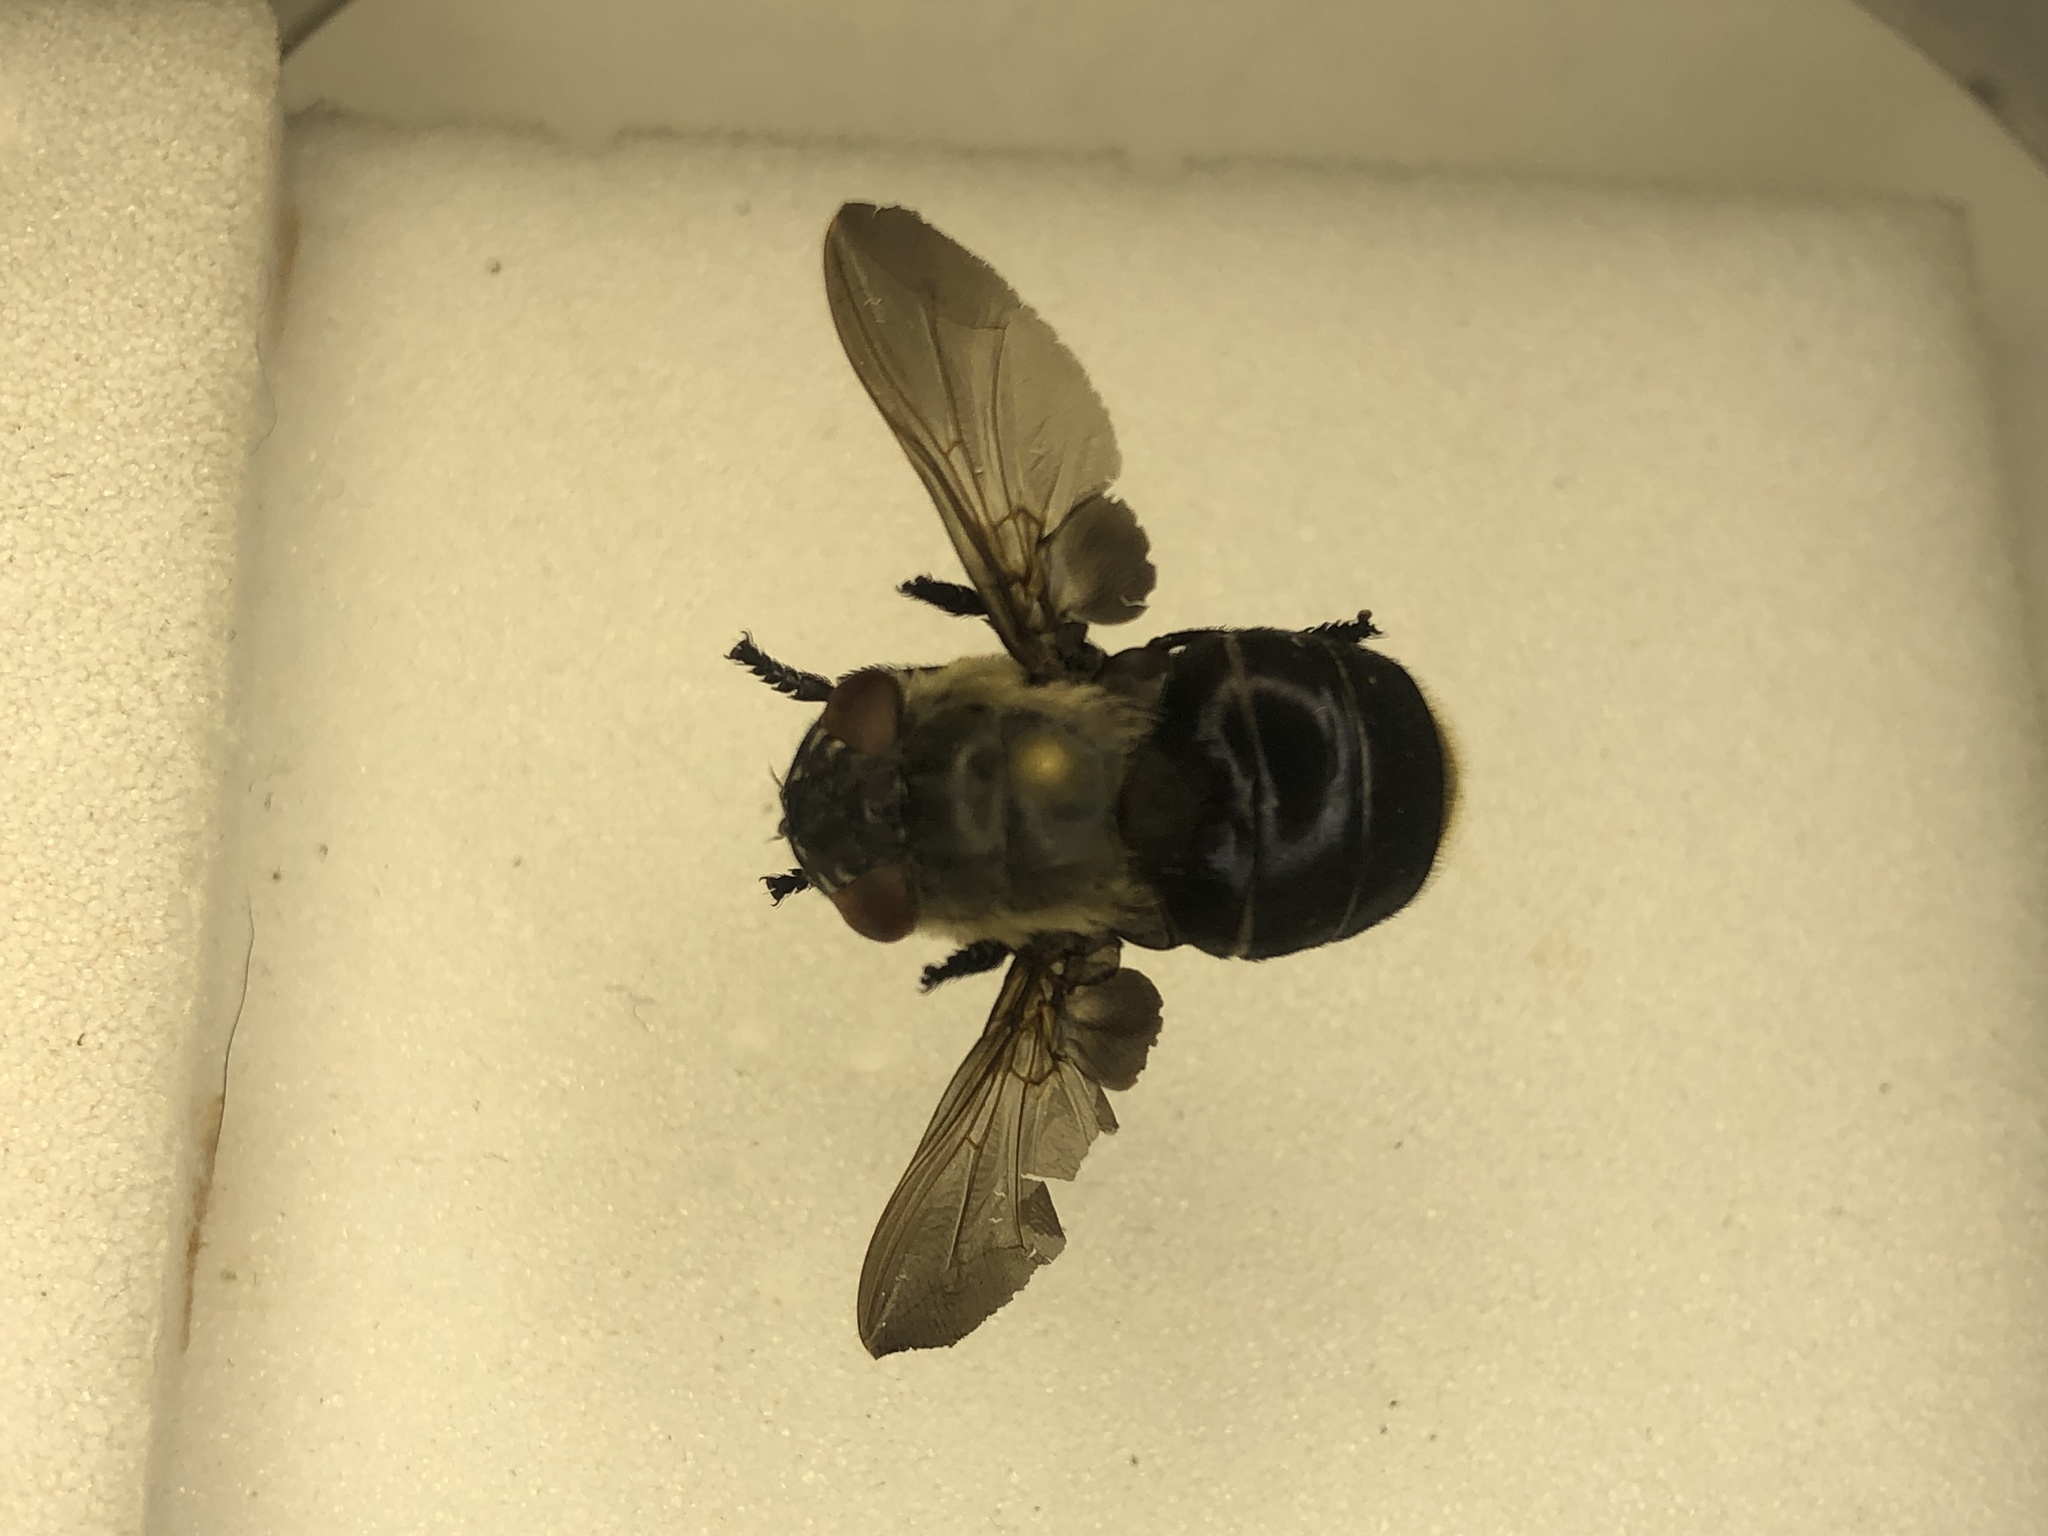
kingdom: Animalia
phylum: Arthropoda
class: Insecta
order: Diptera
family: Oestridae
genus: Cuterebra
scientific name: Cuterebra fontinella
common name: Mouse bot fly
